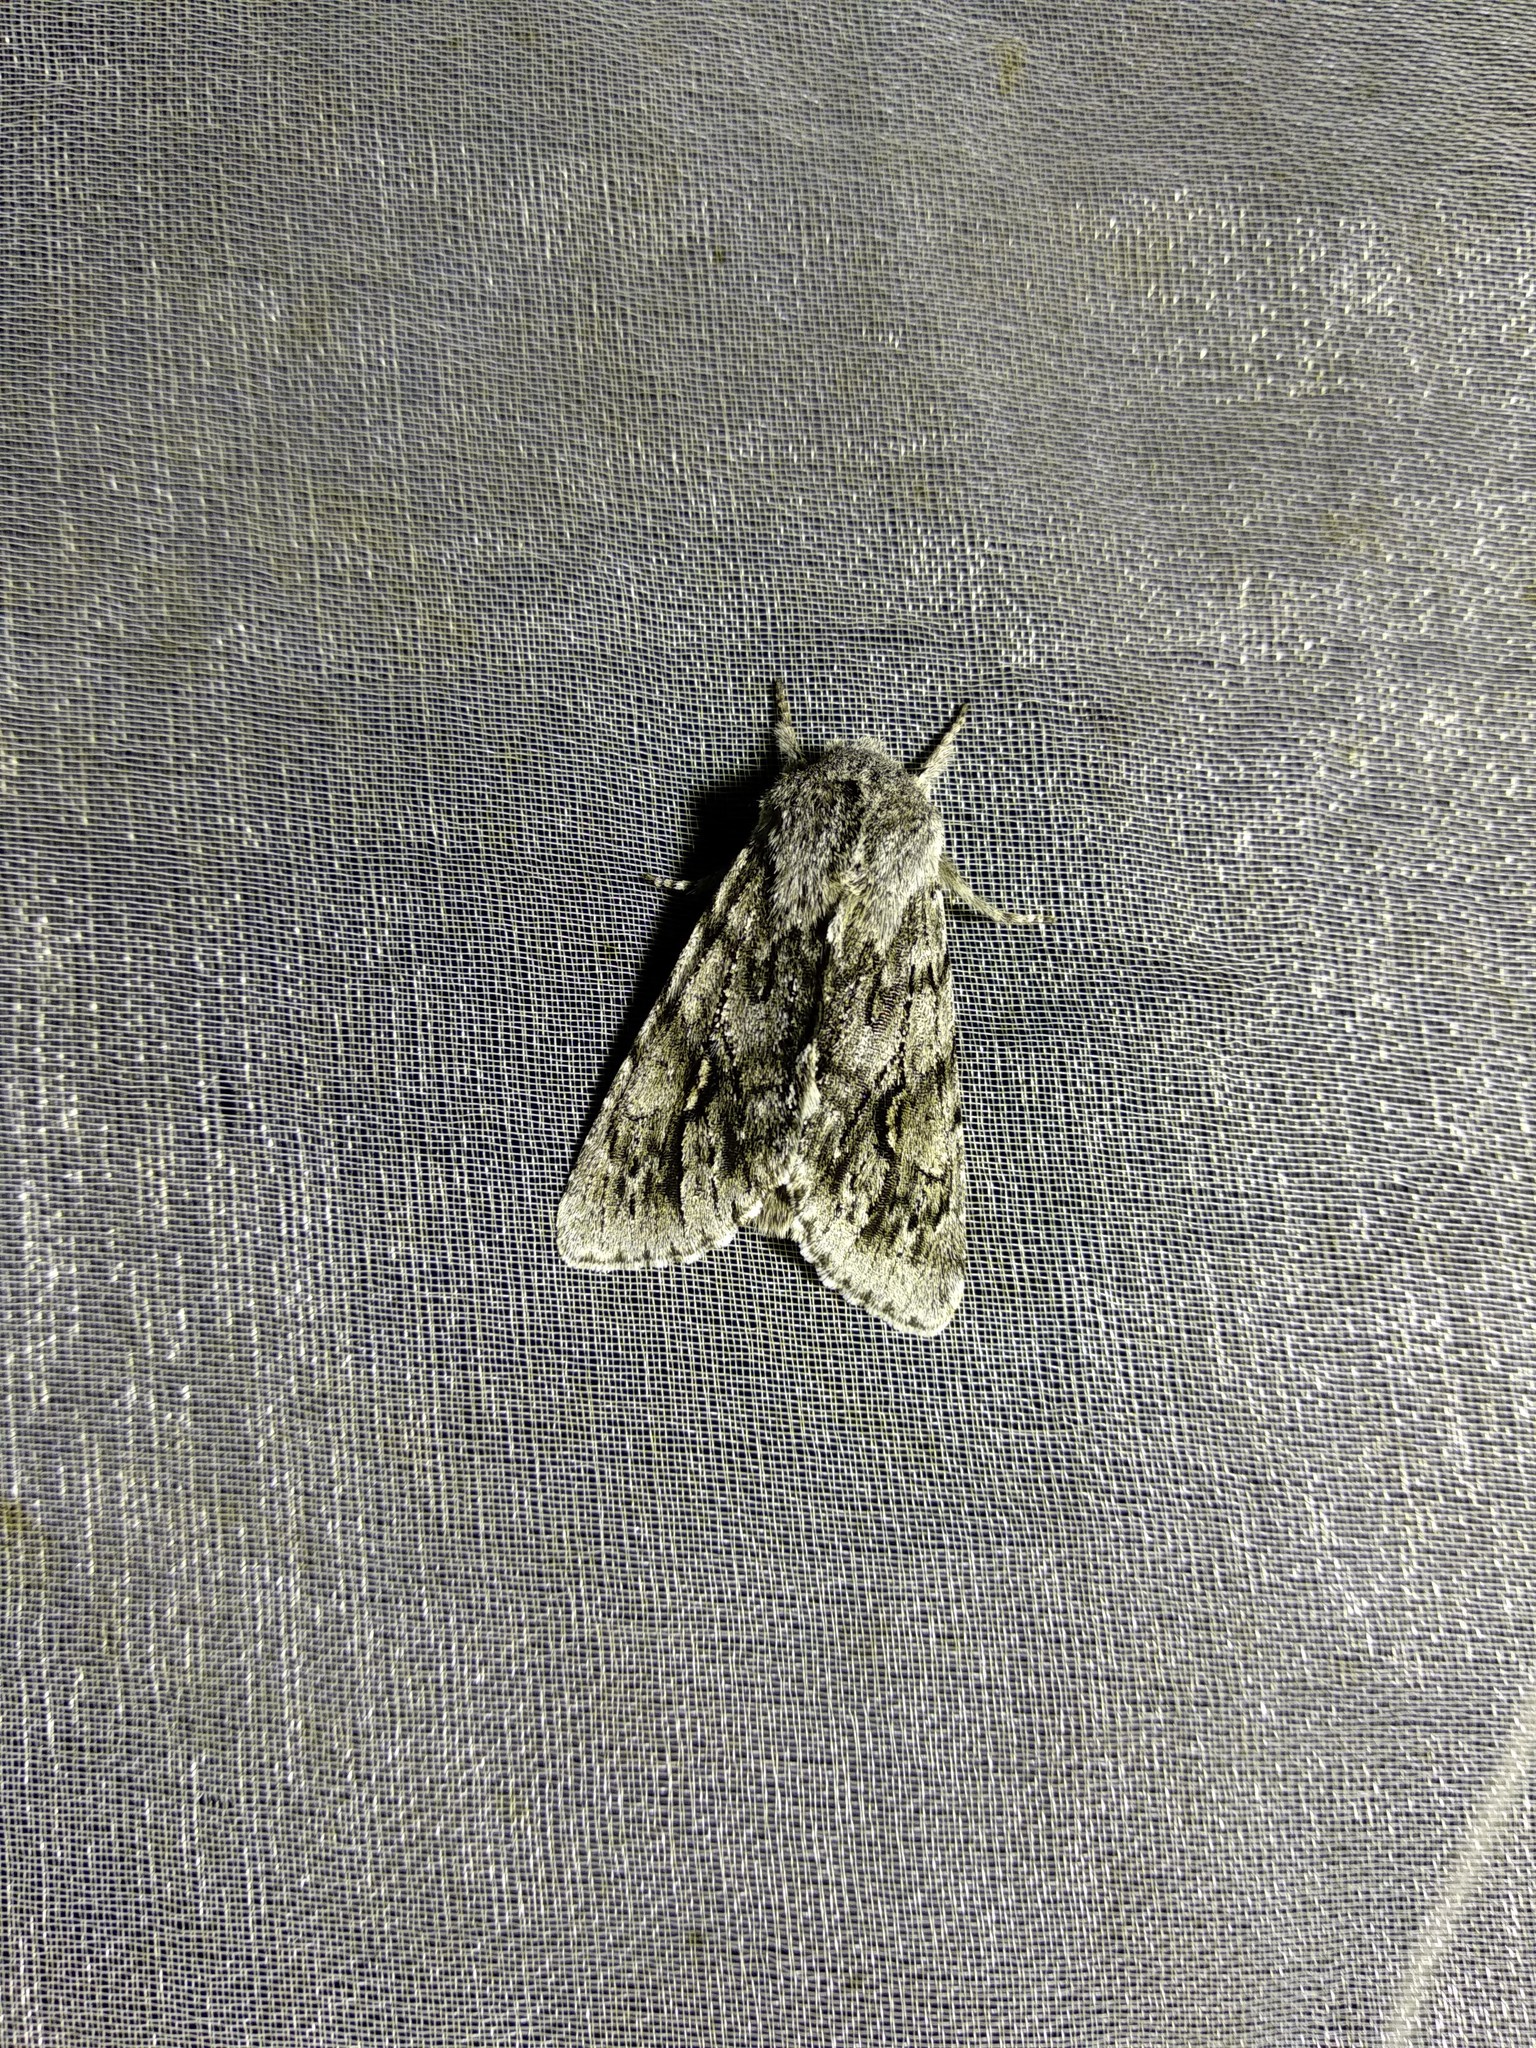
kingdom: Animalia
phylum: Arthropoda
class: Insecta
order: Lepidoptera
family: Noctuidae
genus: Brachionycha
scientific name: Brachionycha nubeculosa
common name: Rannoch sprawler
